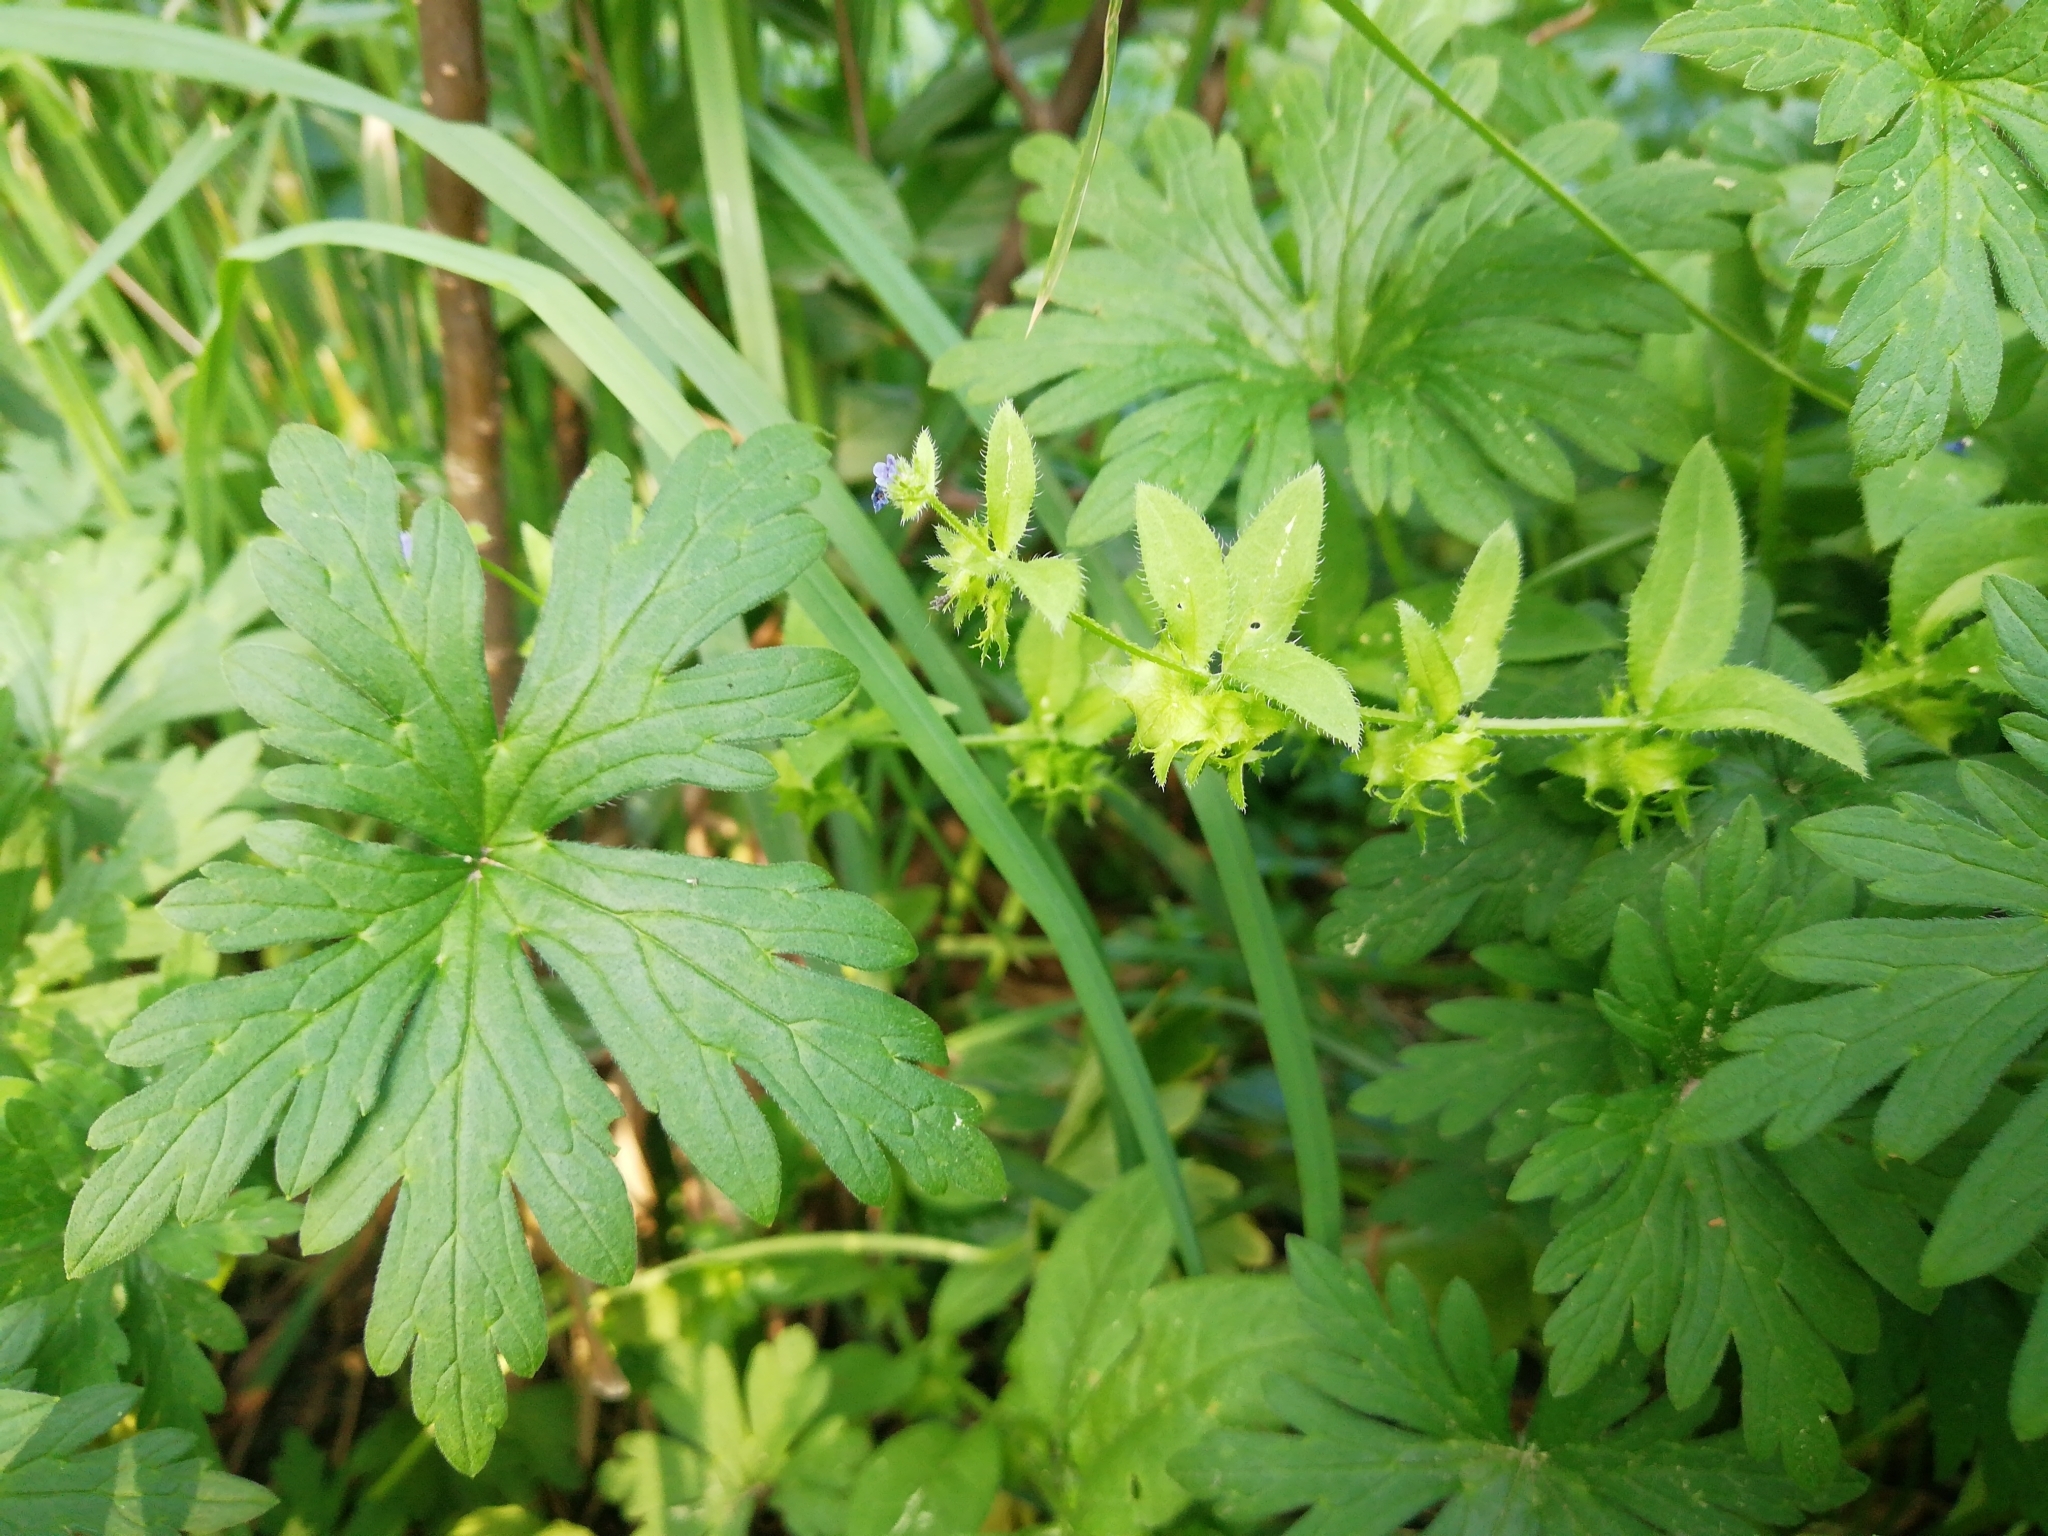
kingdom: Plantae
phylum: Tracheophyta
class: Magnoliopsida
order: Boraginales
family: Boraginaceae
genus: Asperugo
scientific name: Asperugo procumbens
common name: Madwort
